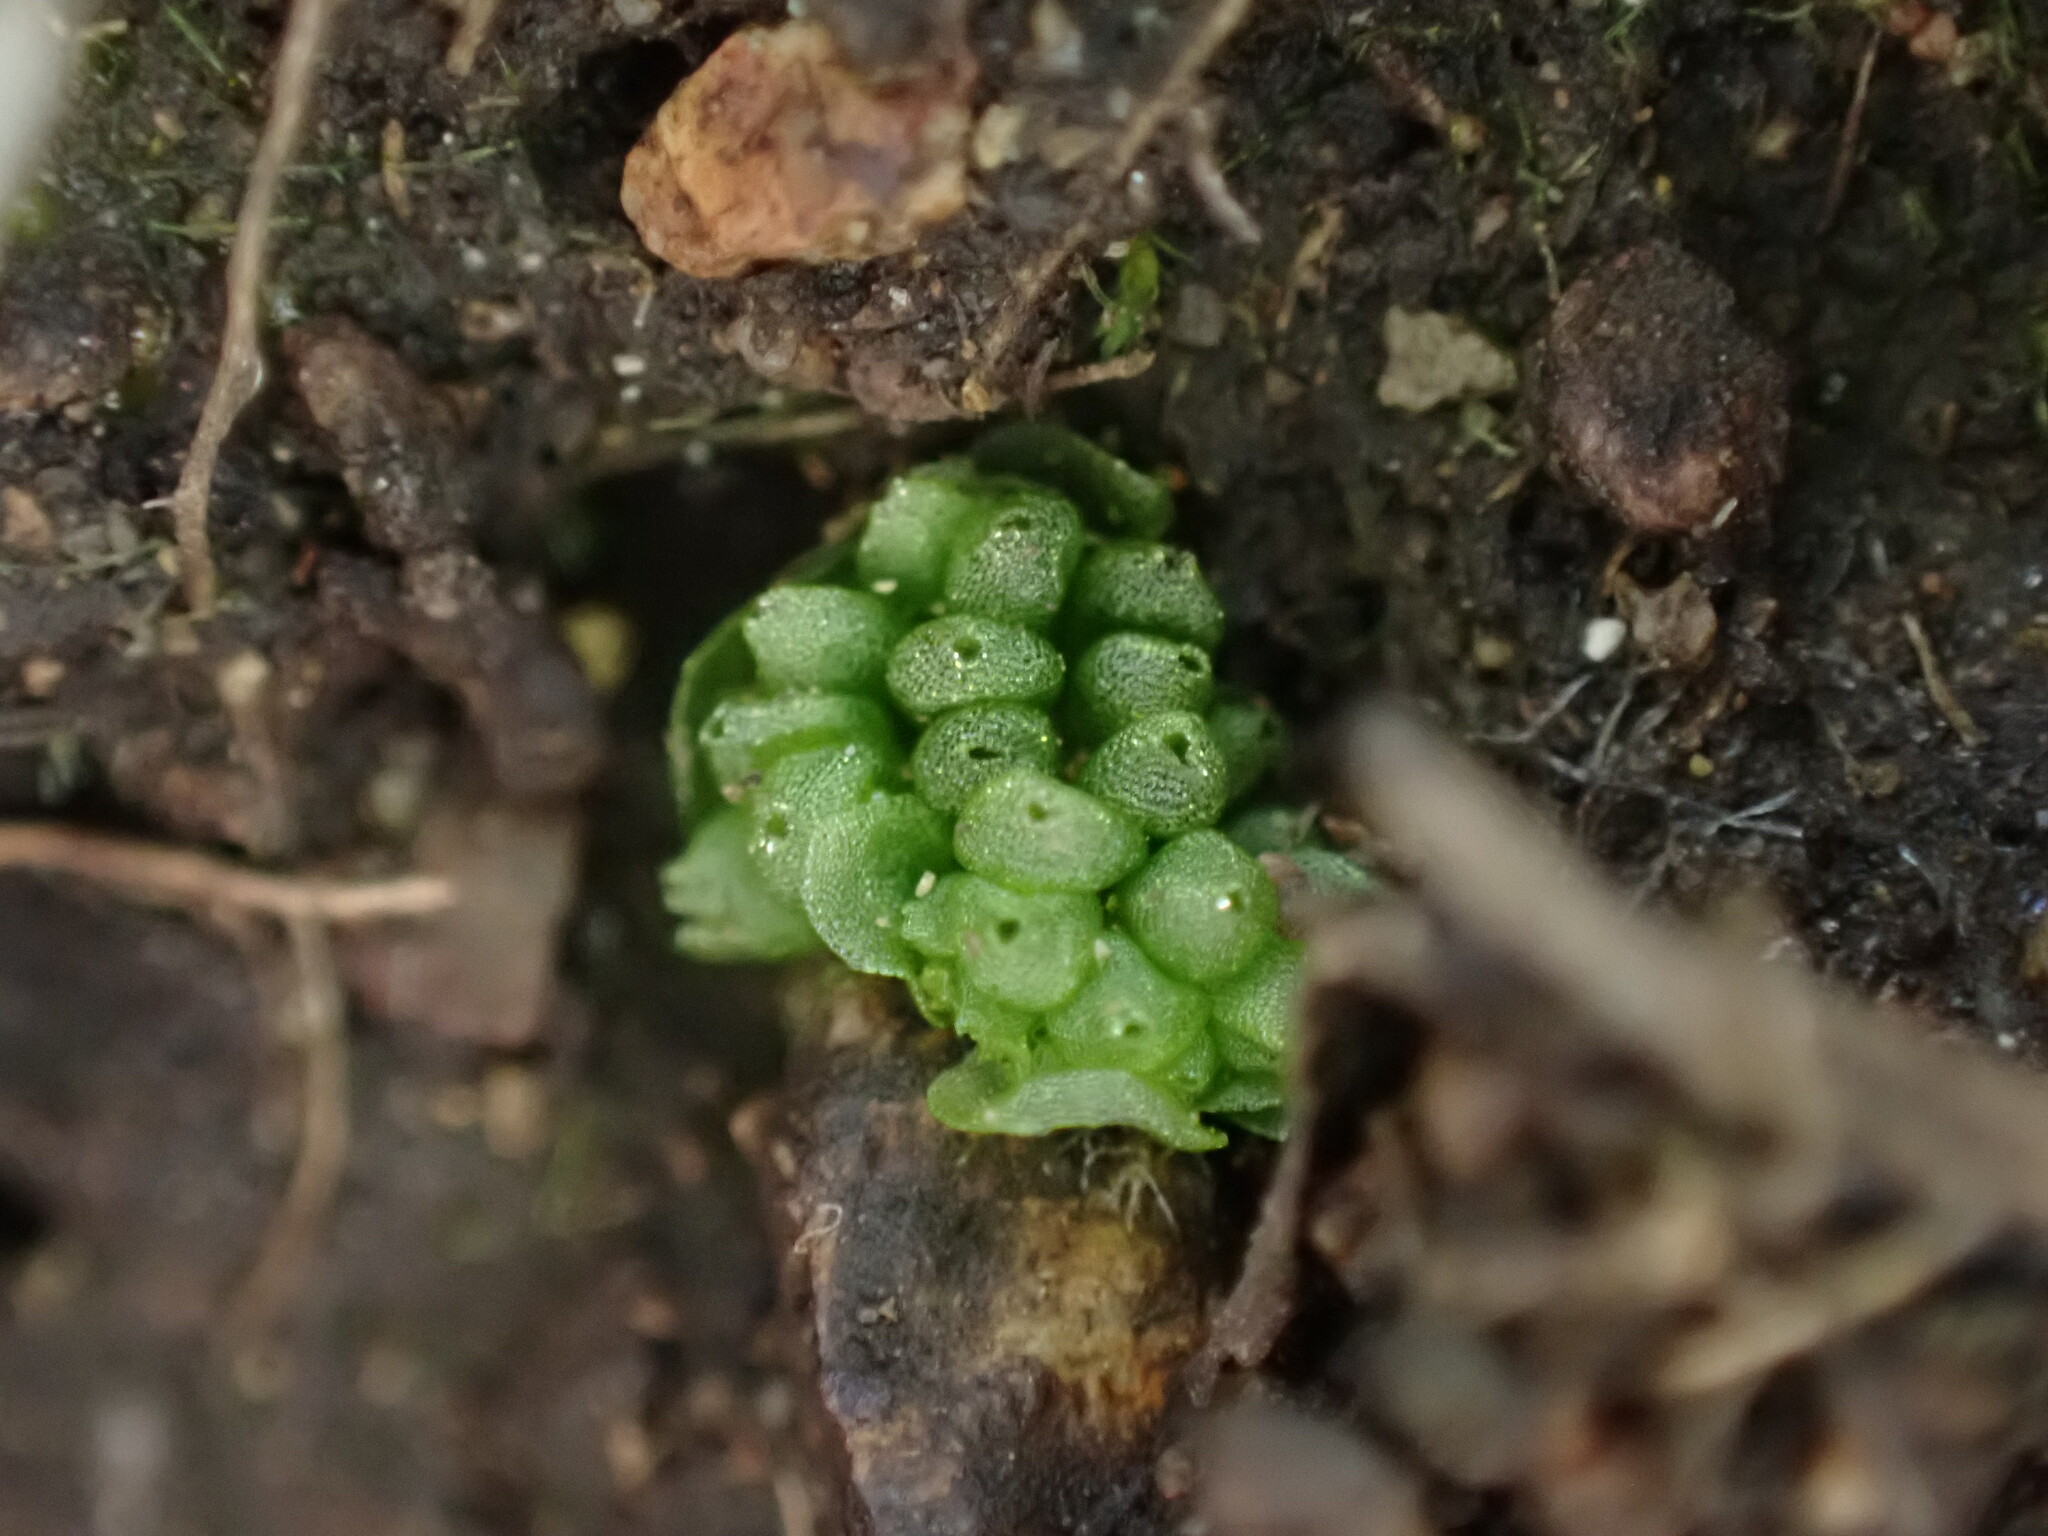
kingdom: Plantae
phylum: Marchantiophyta
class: Marchantiopsida
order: Sphaerocarpales
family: Sphaerocarpaceae
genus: Sphaerocarpos
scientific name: Sphaerocarpos texanus
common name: Texas balloonwort
